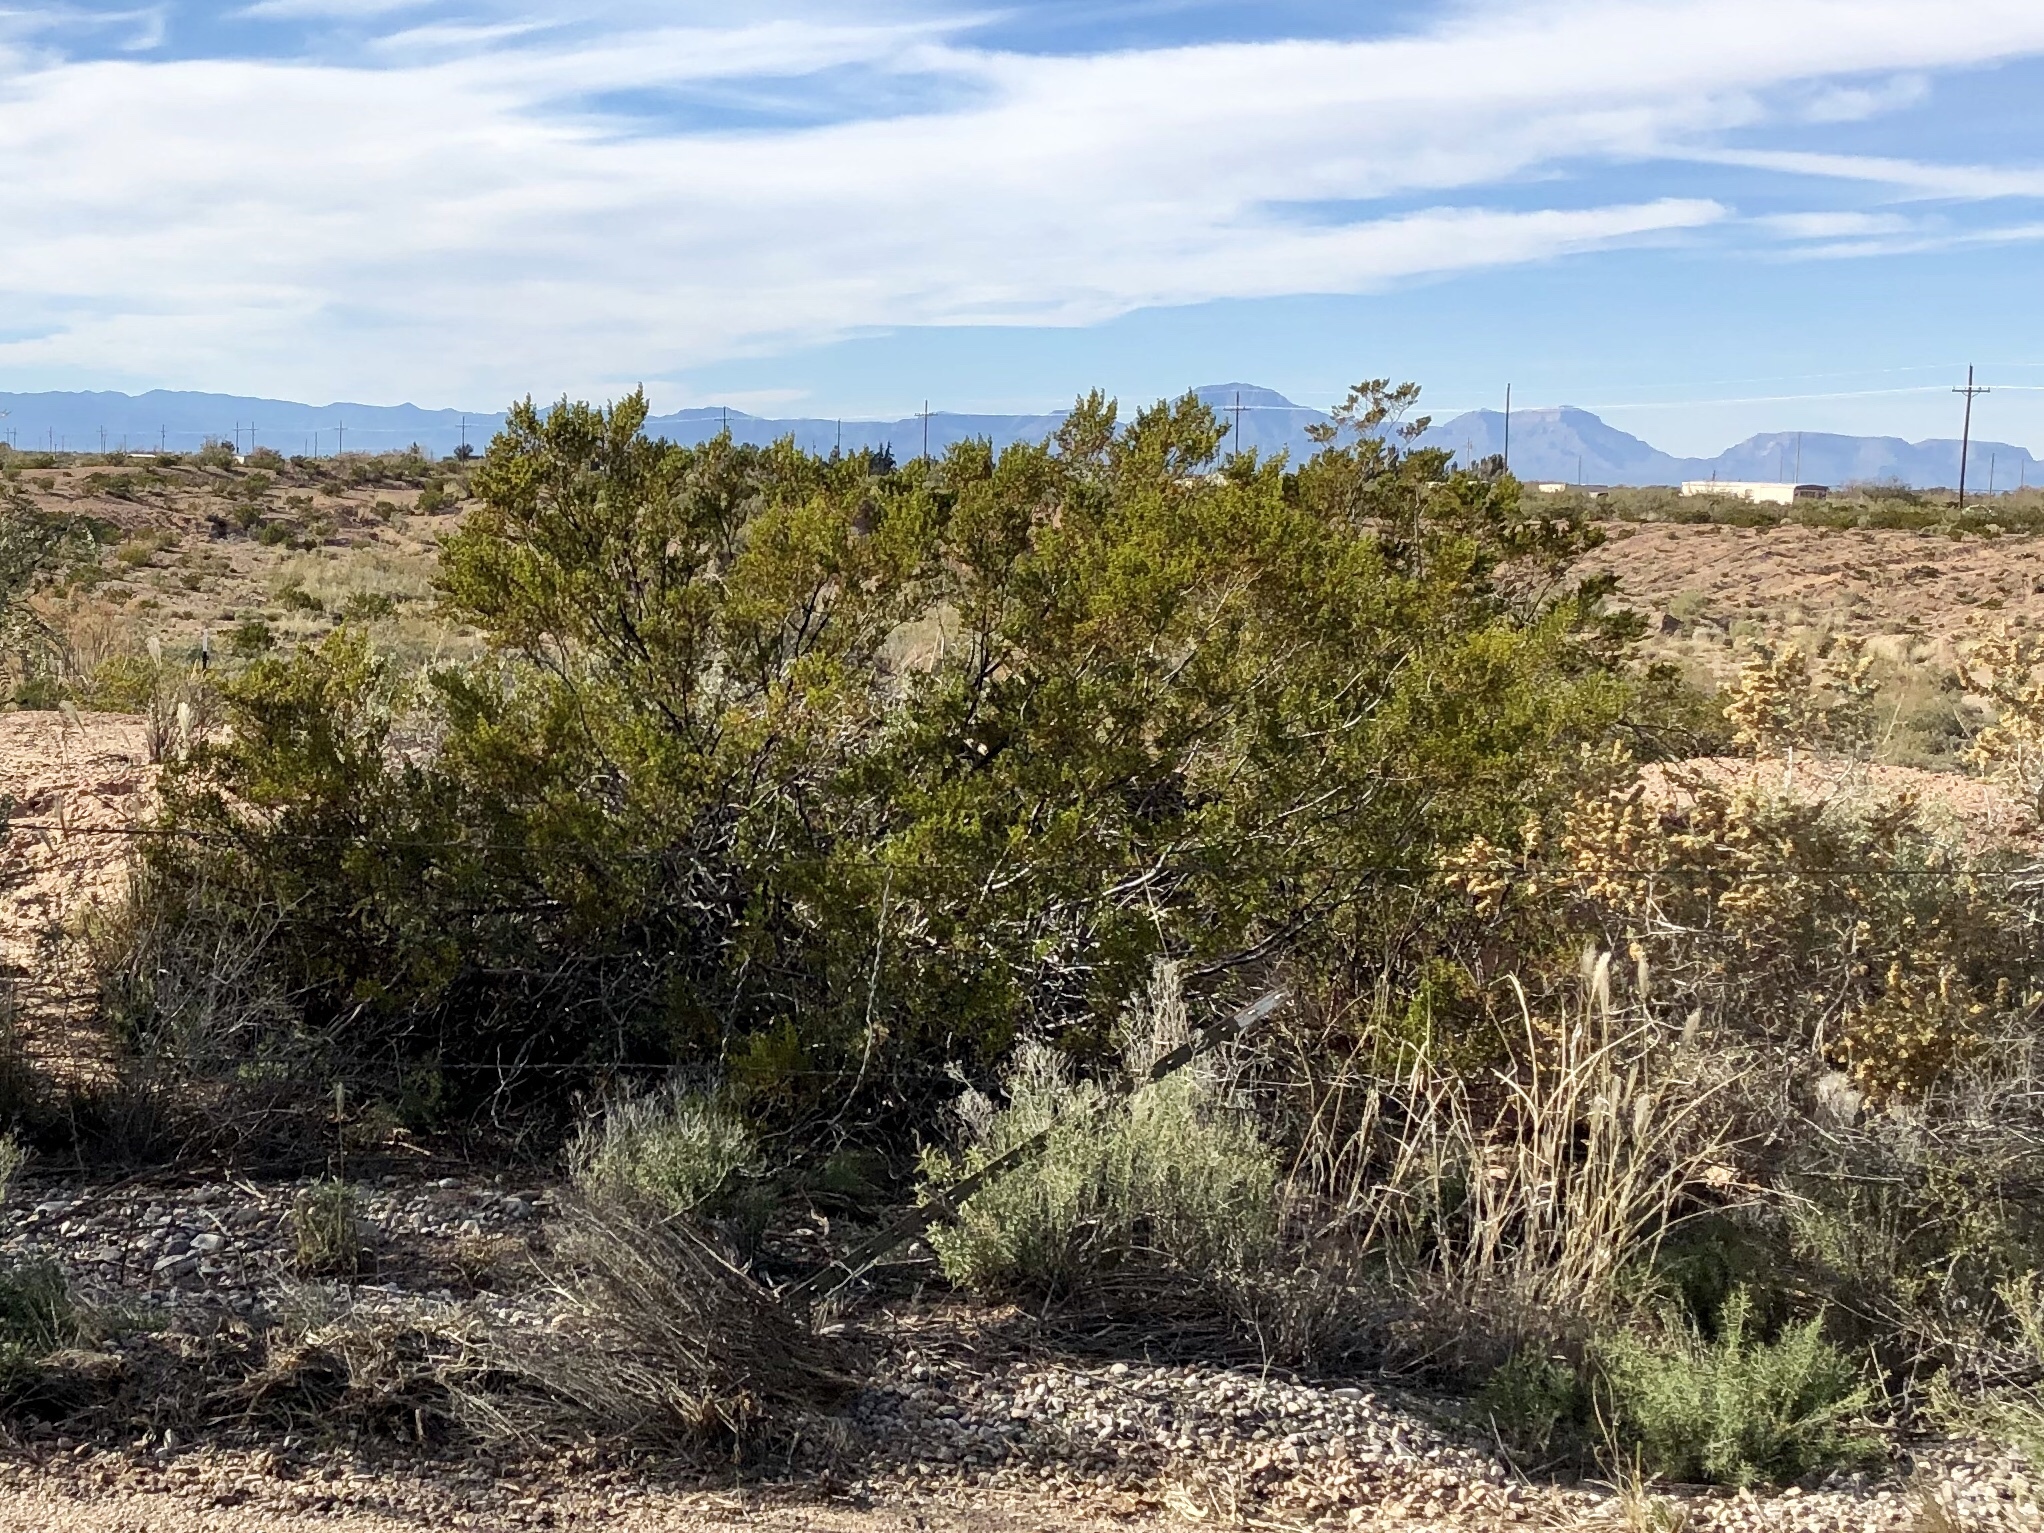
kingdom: Plantae
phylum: Tracheophyta
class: Magnoliopsida
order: Zygophyllales
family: Zygophyllaceae
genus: Larrea
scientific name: Larrea tridentata
